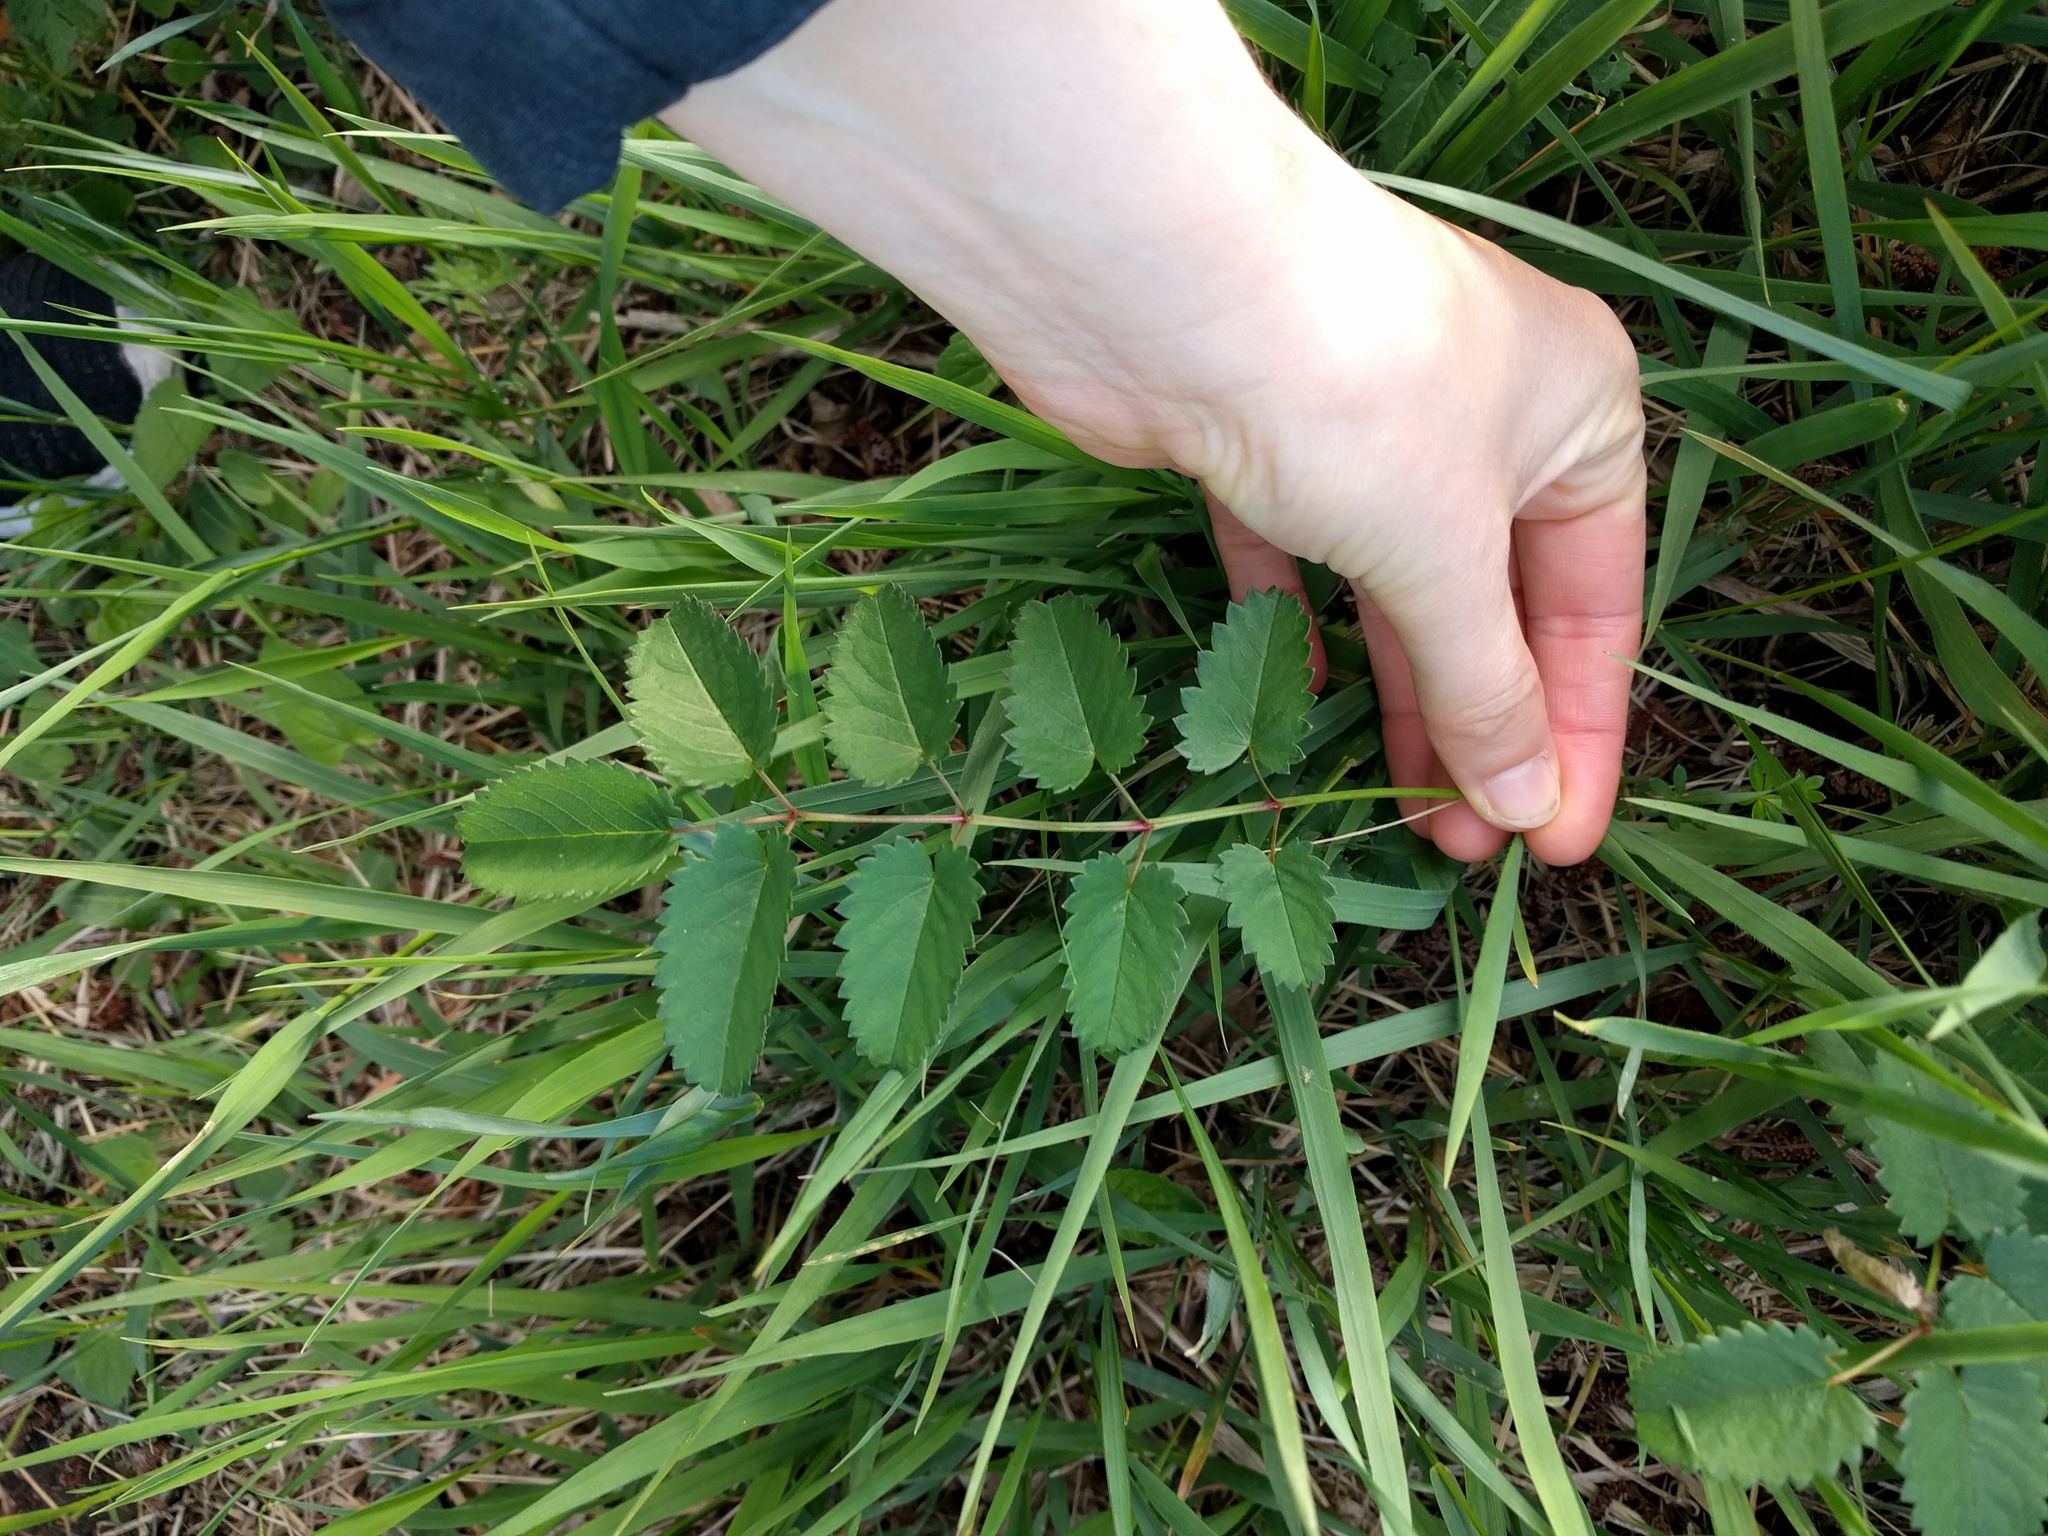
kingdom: Plantae
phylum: Tracheophyta
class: Magnoliopsida
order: Rosales
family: Rosaceae
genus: Sanguisorba
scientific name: Sanguisorba officinalis
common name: Great burnet
